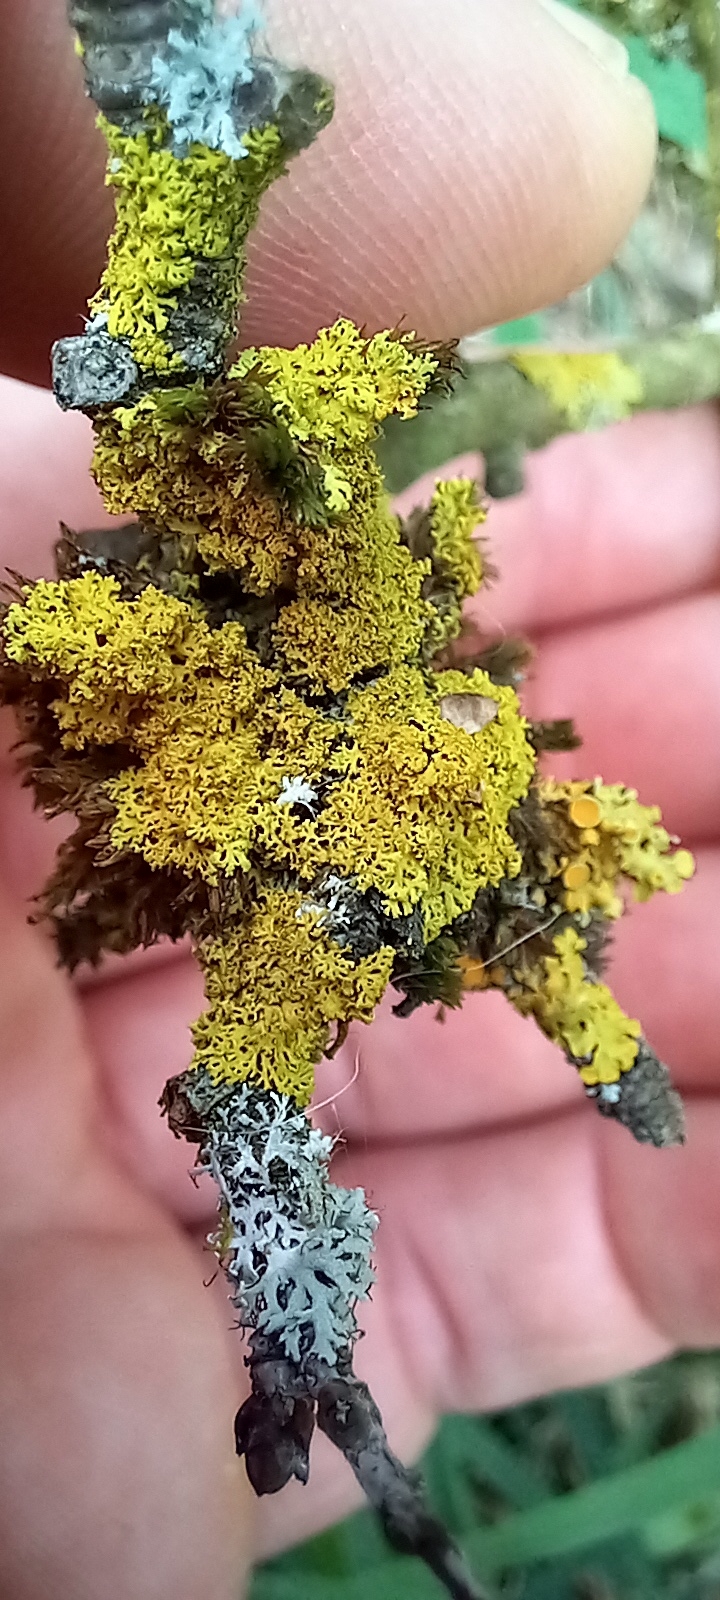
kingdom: Fungi
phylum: Ascomycota
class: Candelariomycetes
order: Candelariales
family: Candelariaceae
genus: Candelaria
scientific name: Candelaria concolor
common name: Candleflame lichen
